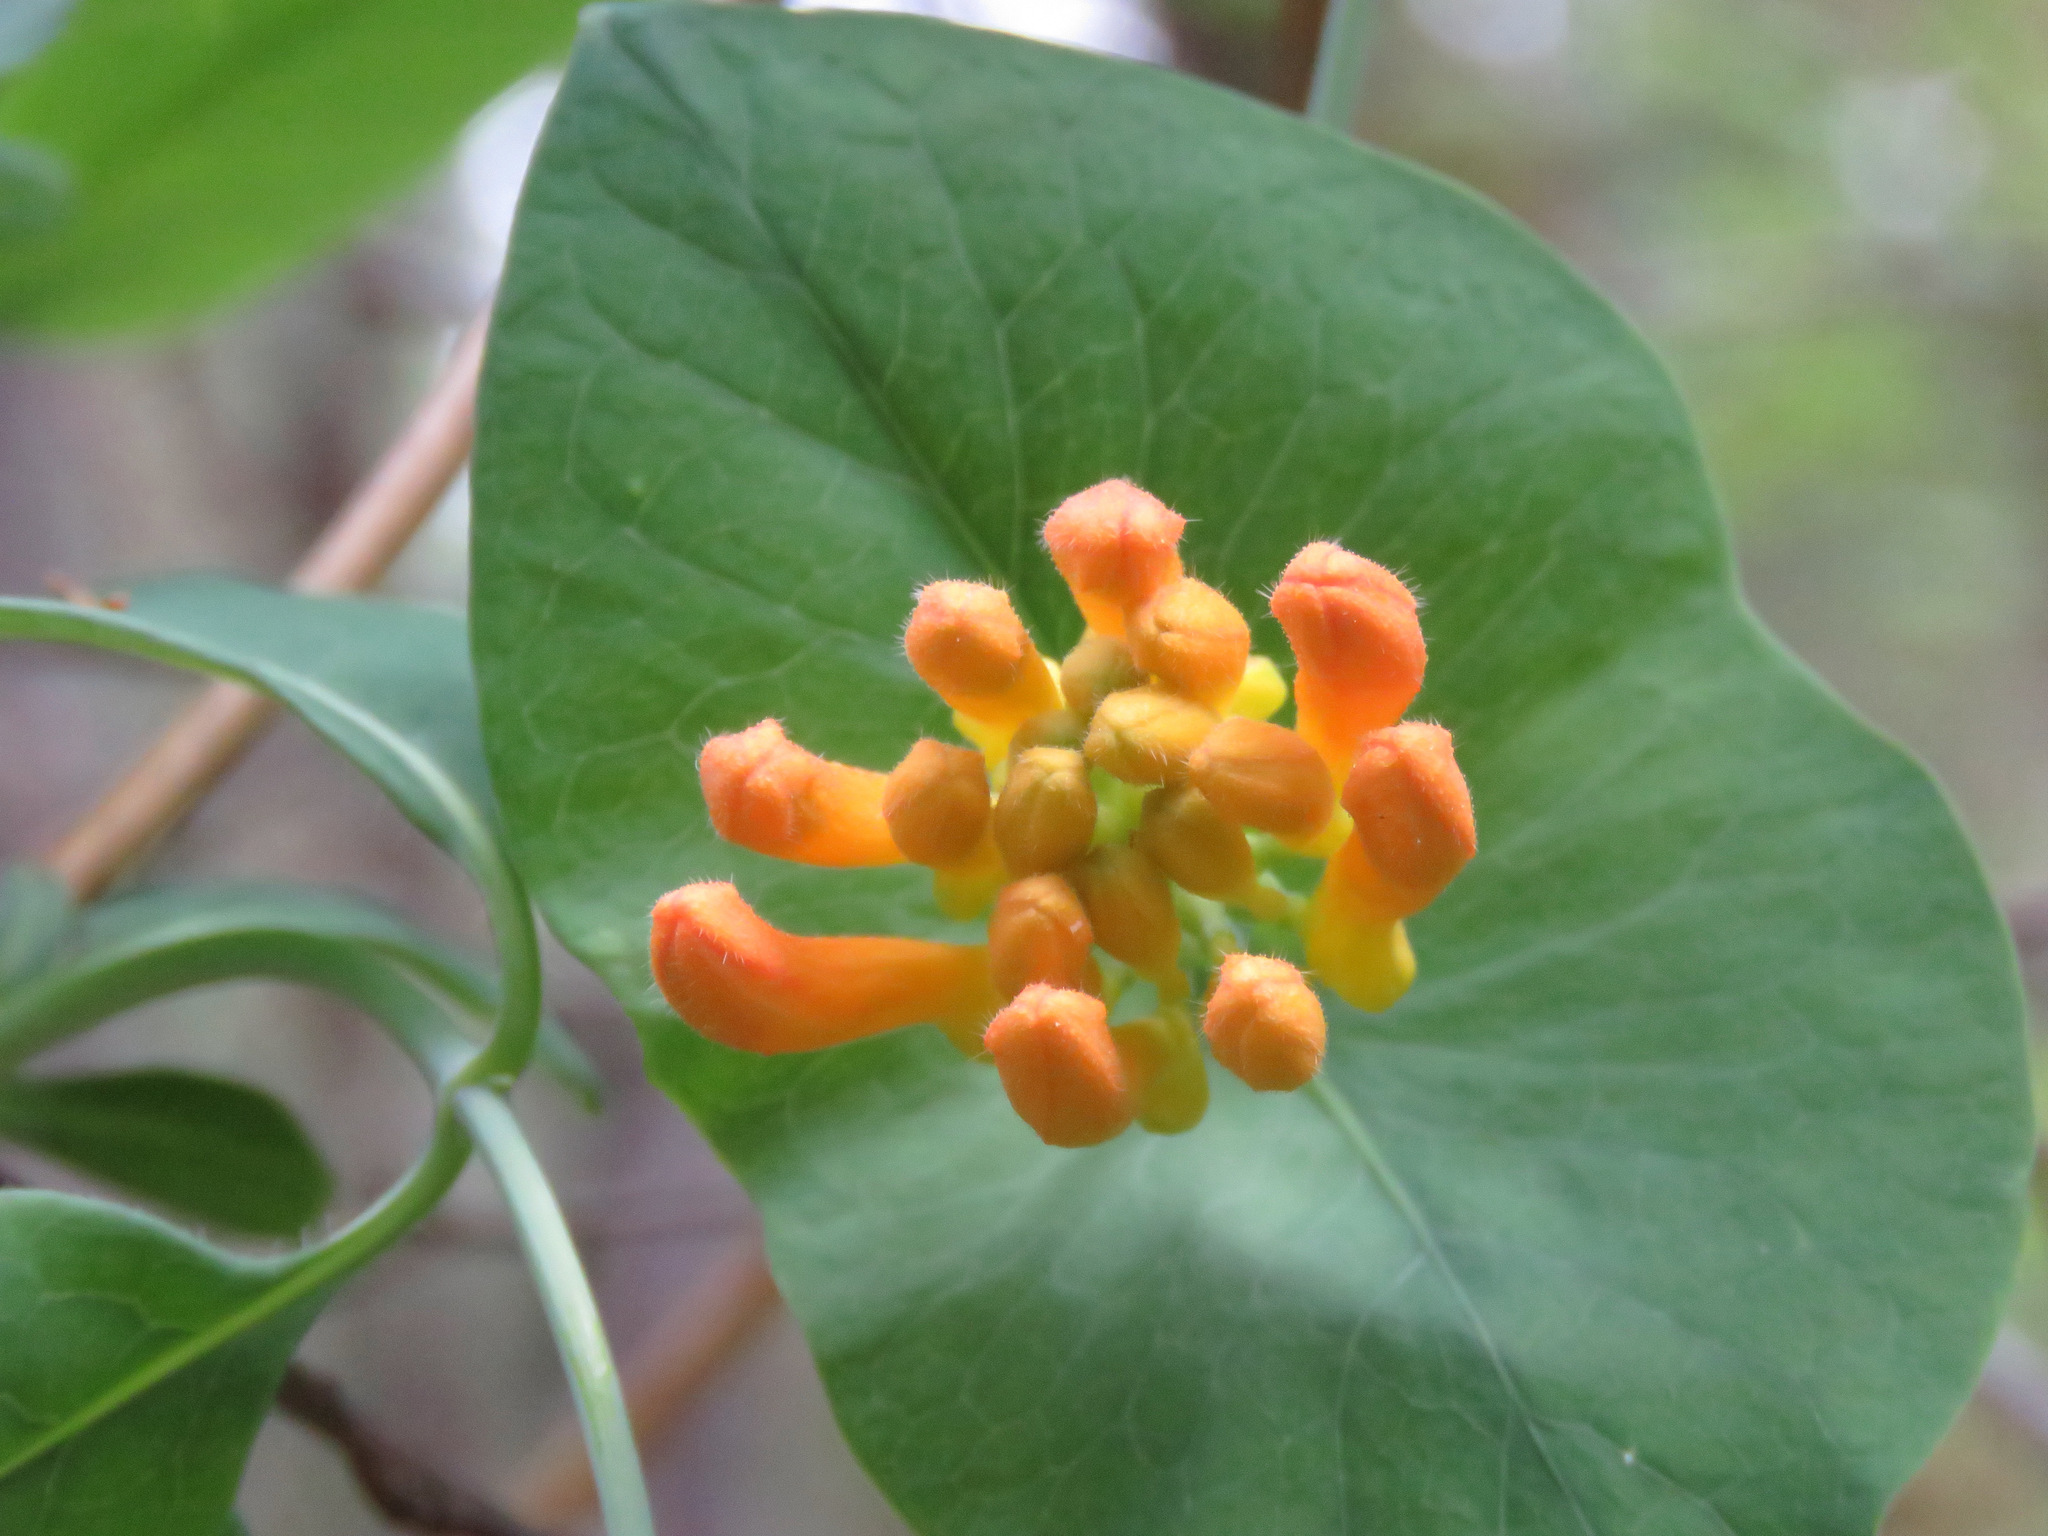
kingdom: Plantae
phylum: Tracheophyta
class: Magnoliopsida
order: Dipsacales
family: Caprifoliaceae
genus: Lonicera
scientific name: Lonicera ciliosa
